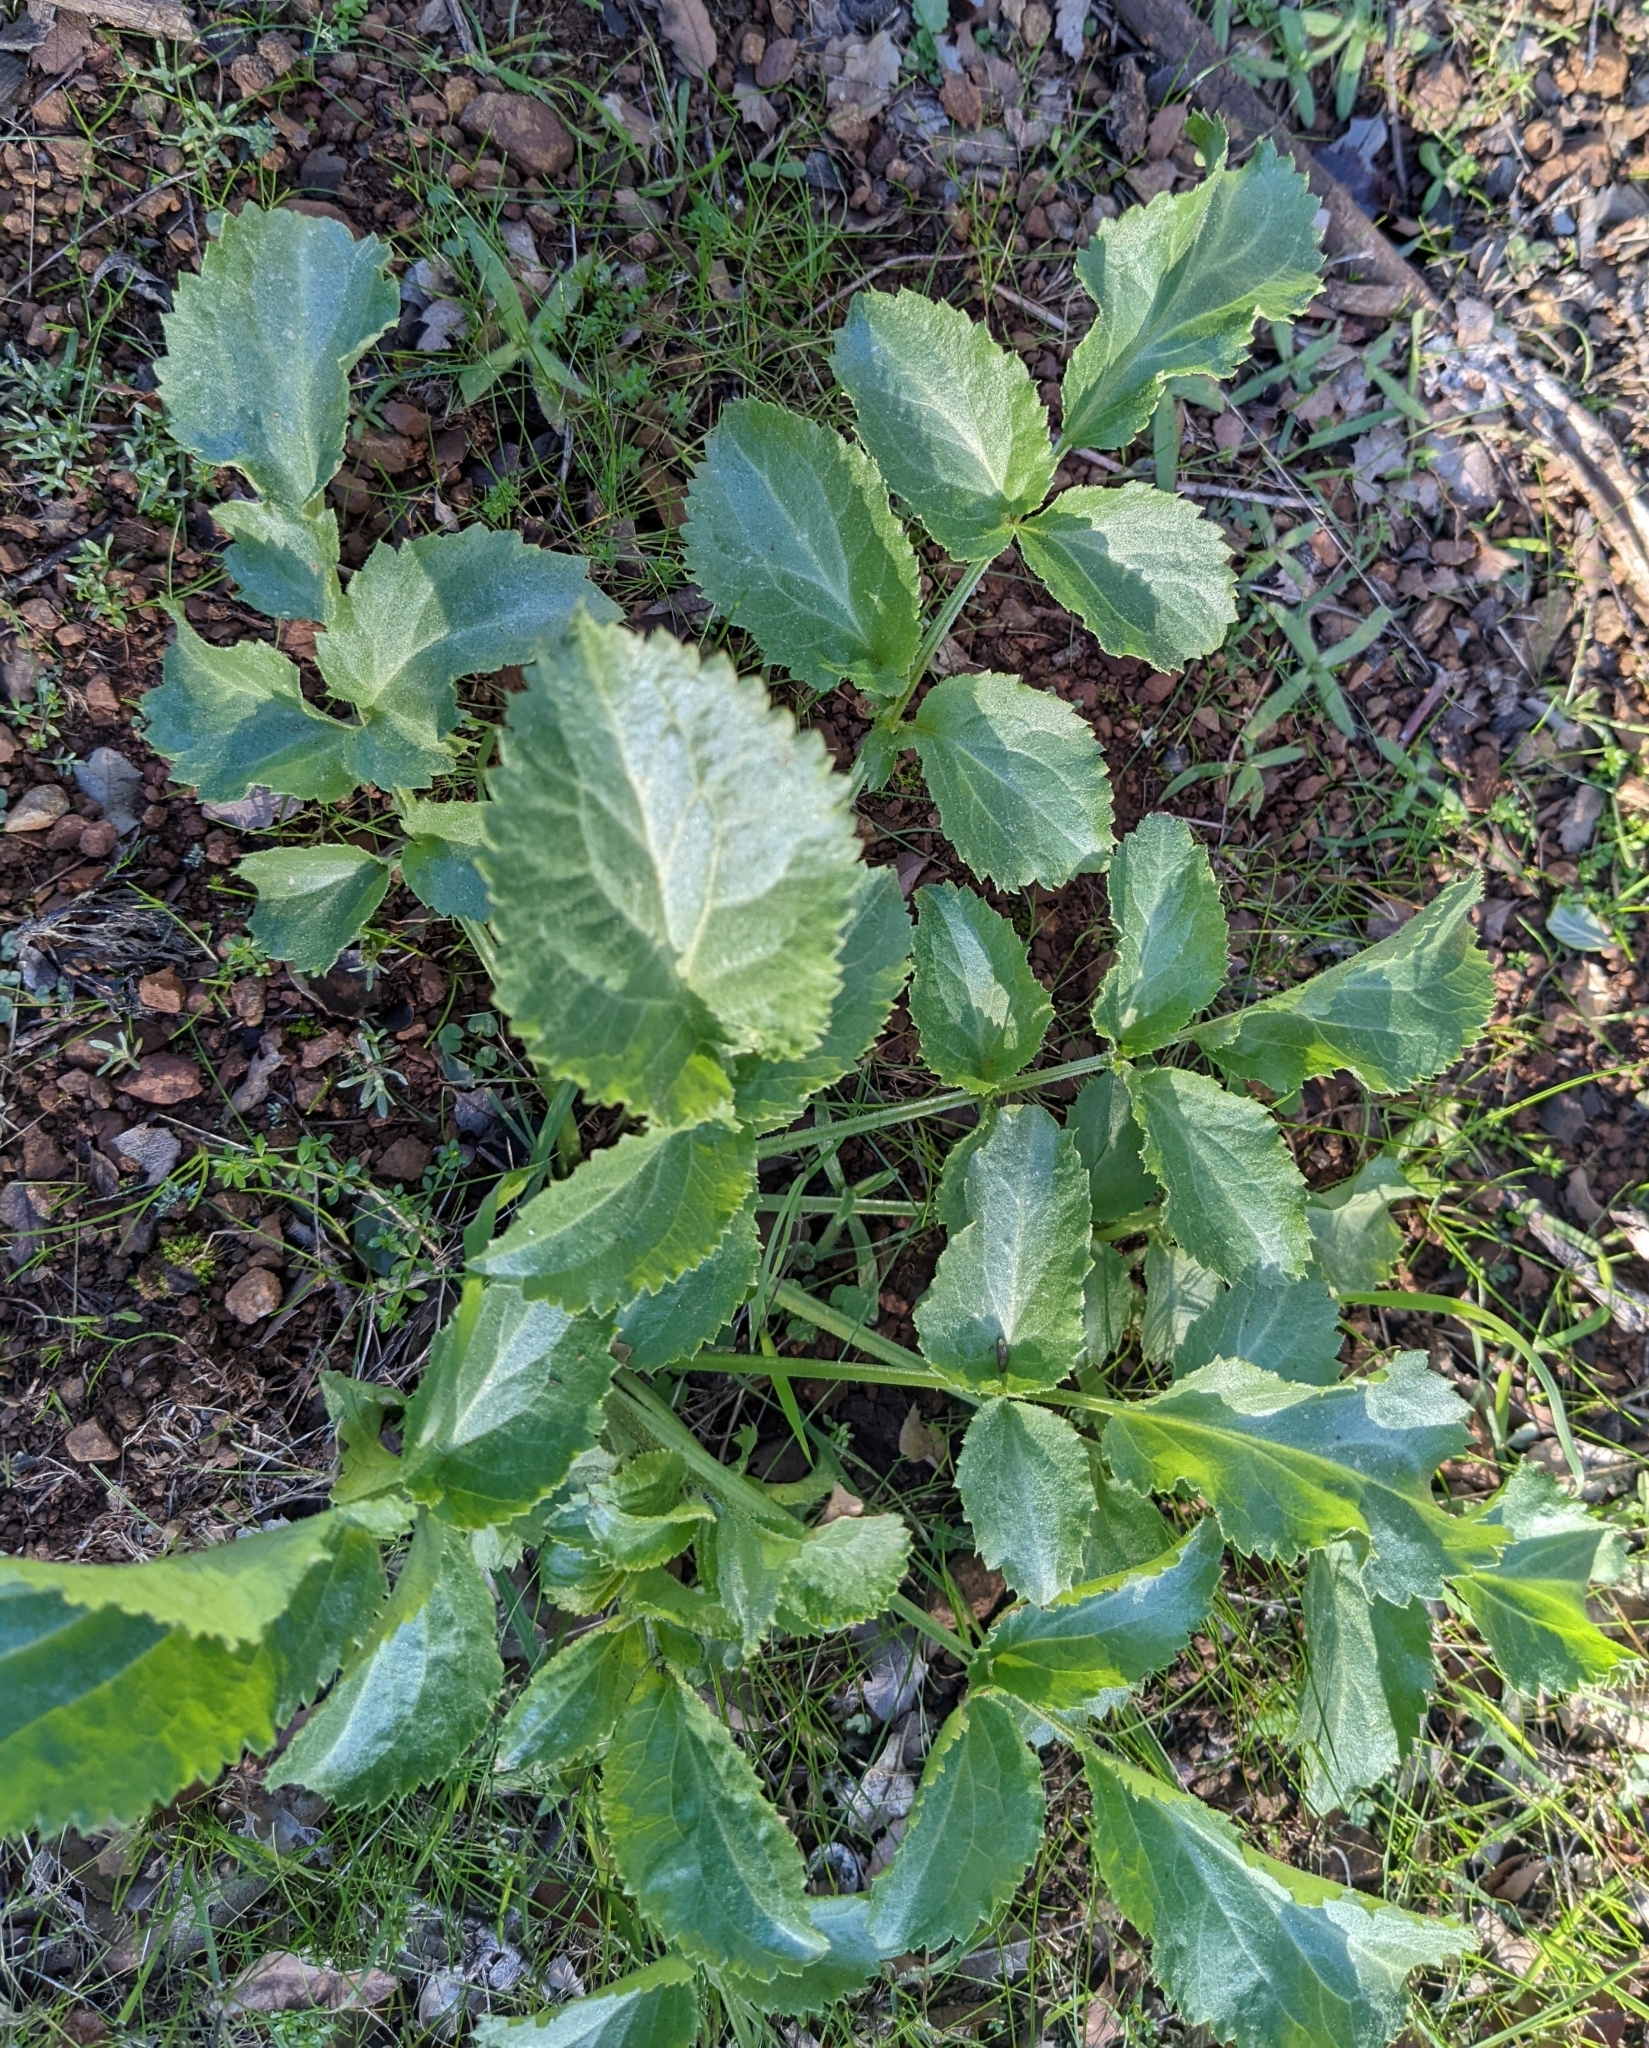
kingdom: Plantae
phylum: Tracheophyta
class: Magnoliopsida
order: Dipsacales
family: Viburnaceae
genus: Sambucus
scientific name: Sambucus cerulea
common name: Blue elder
